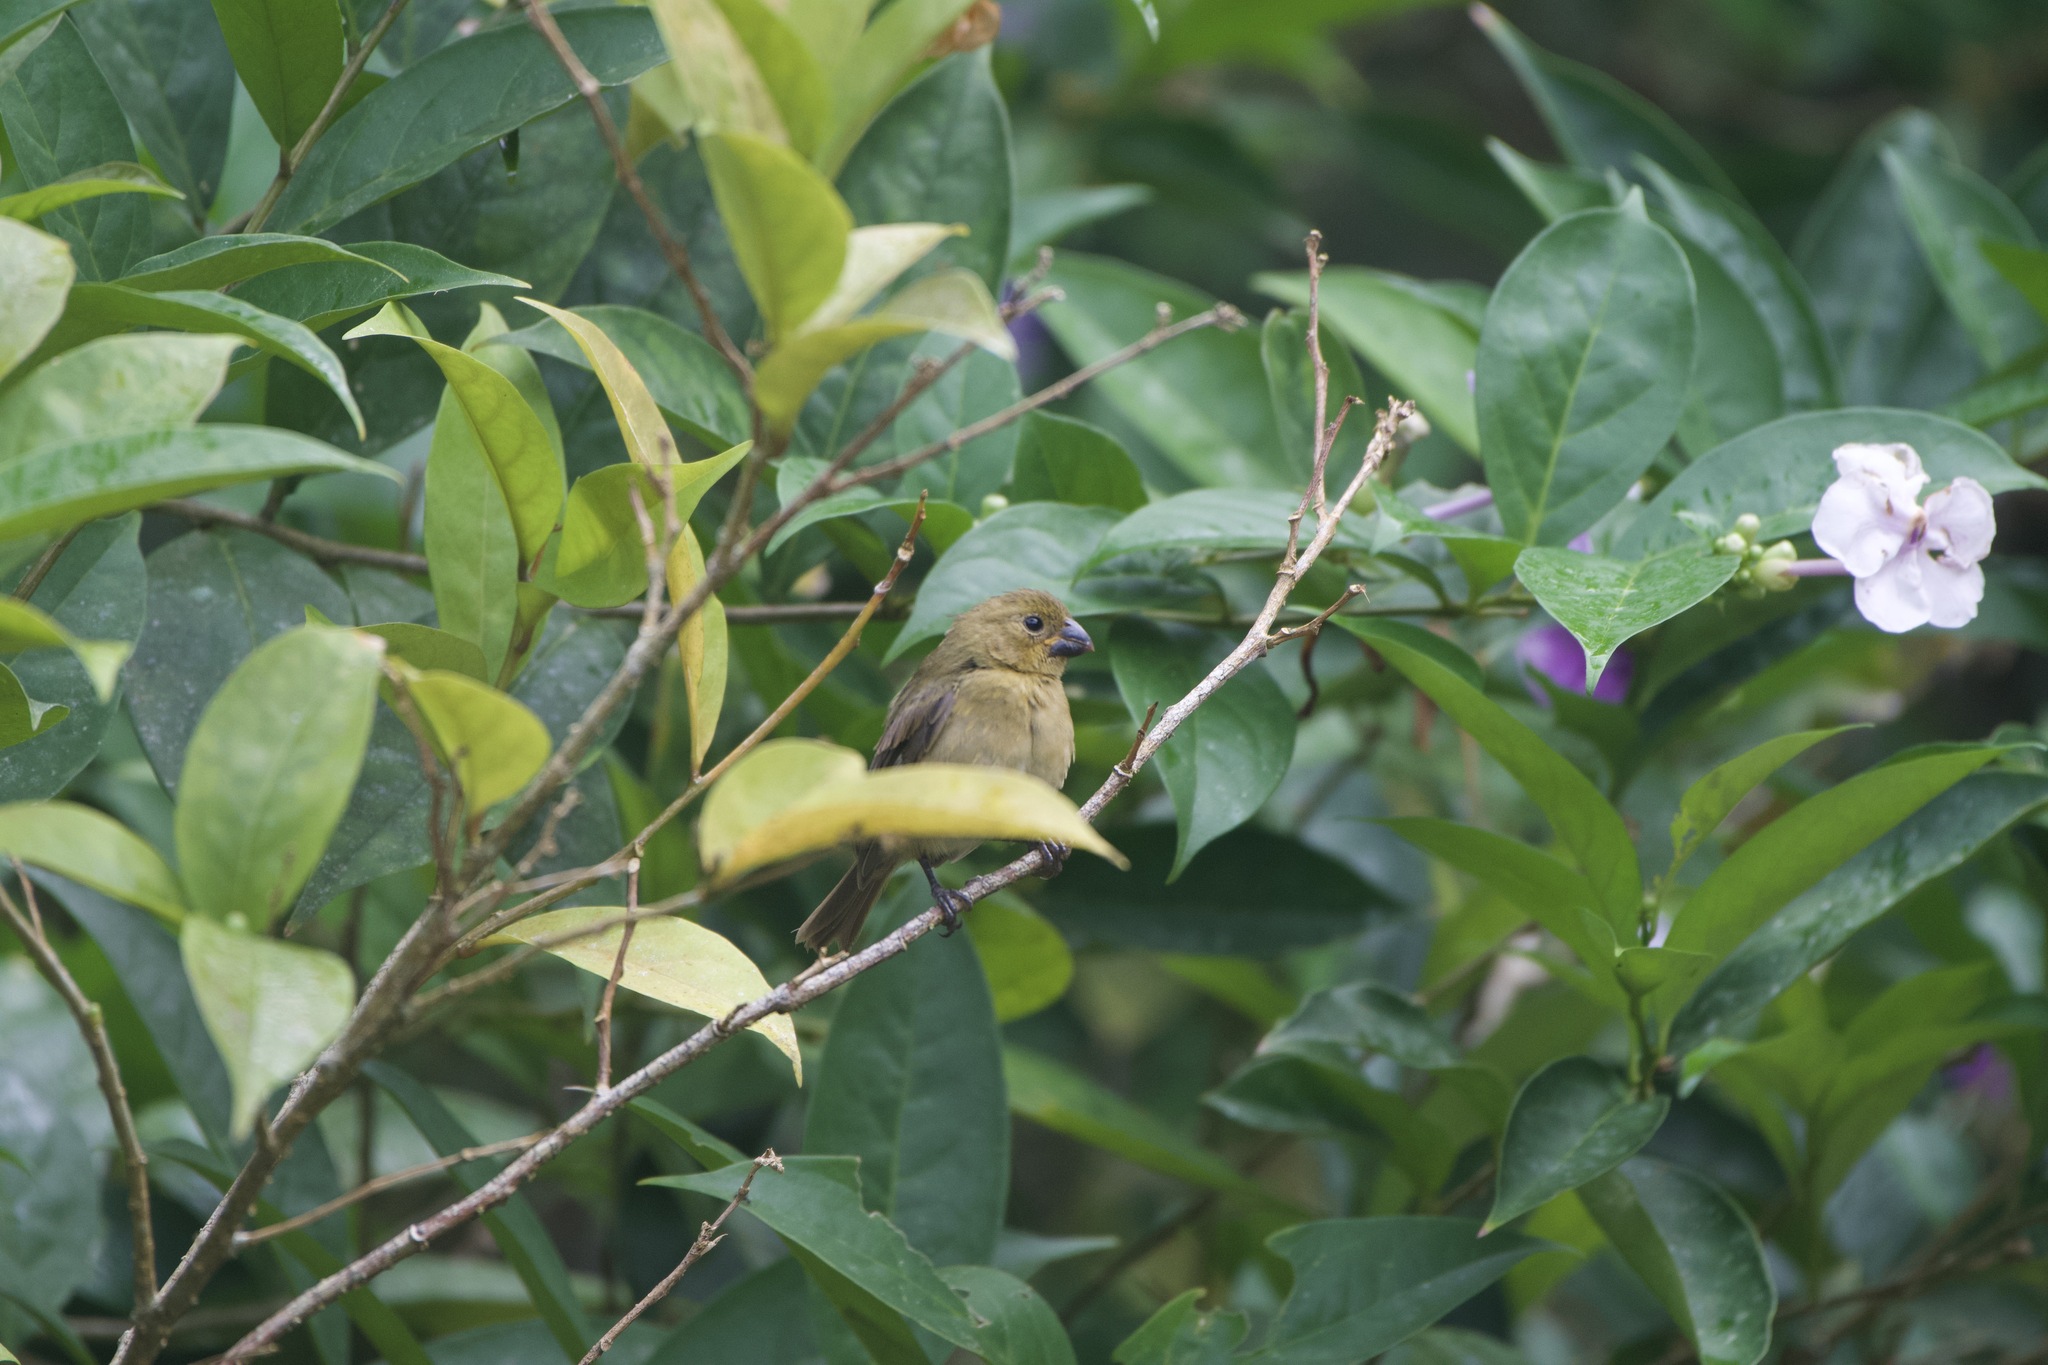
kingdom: Animalia
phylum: Chordata
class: Aves
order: Passeriformes
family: Thraupidae
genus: Sporophila
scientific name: Sporophila corvina
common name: Variable seedeater
